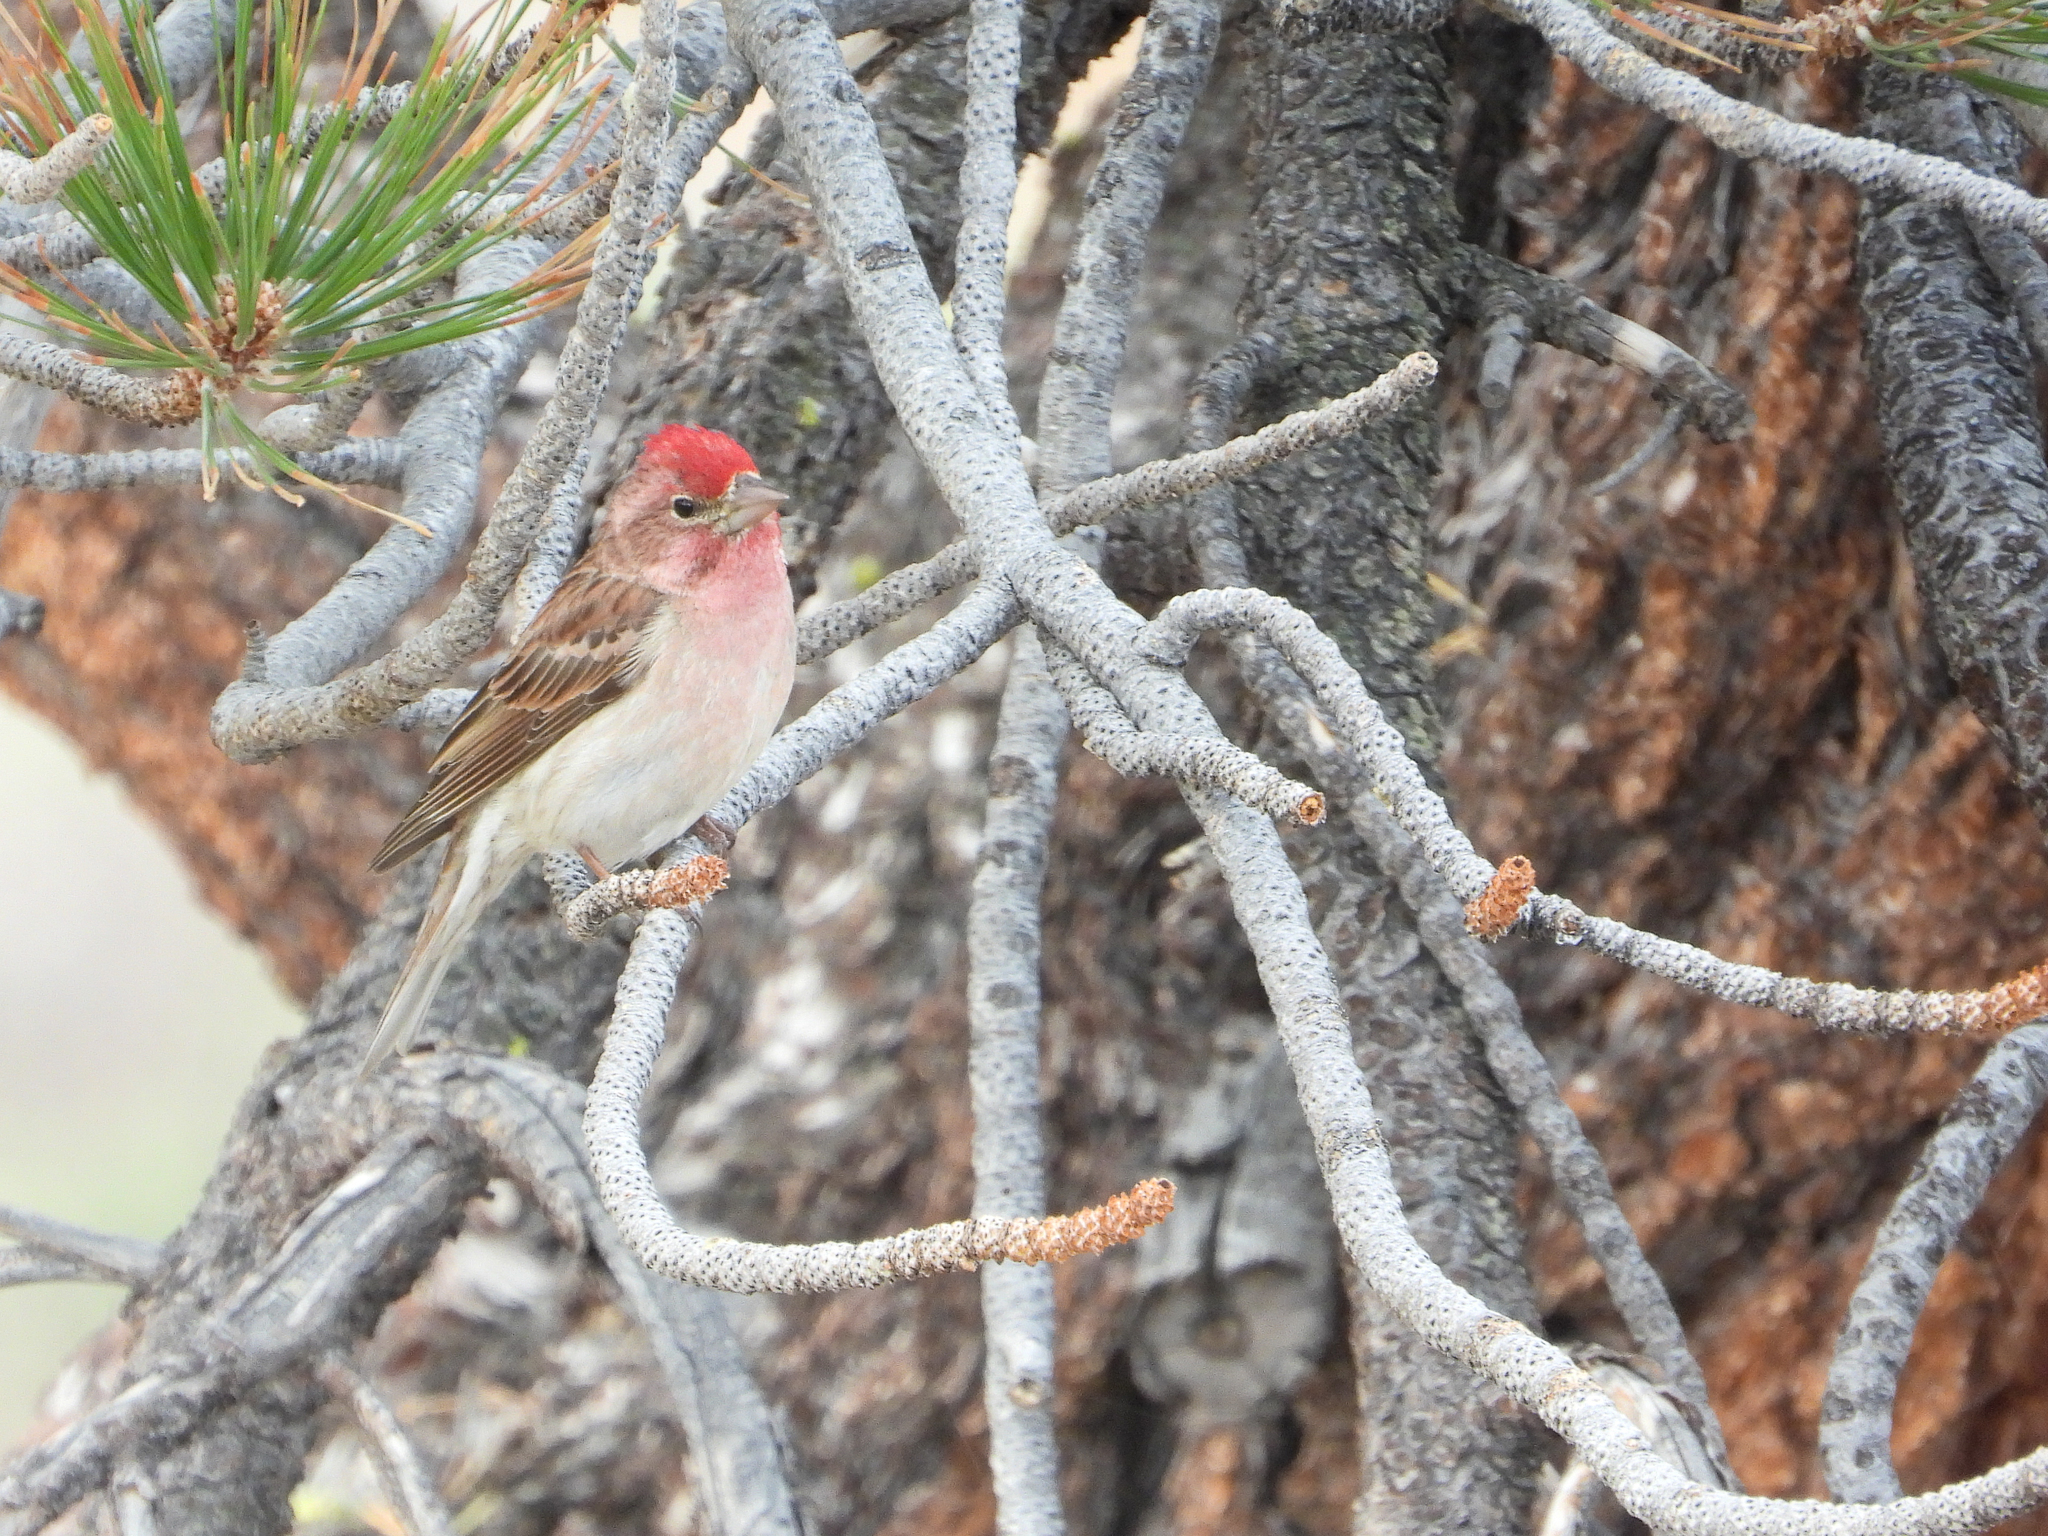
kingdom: Animalia
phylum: Chordata
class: Aves
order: Passeriformes
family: Fringillidae
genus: Haemorhous
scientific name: Haemorhous cassinii
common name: Cassin's finch
